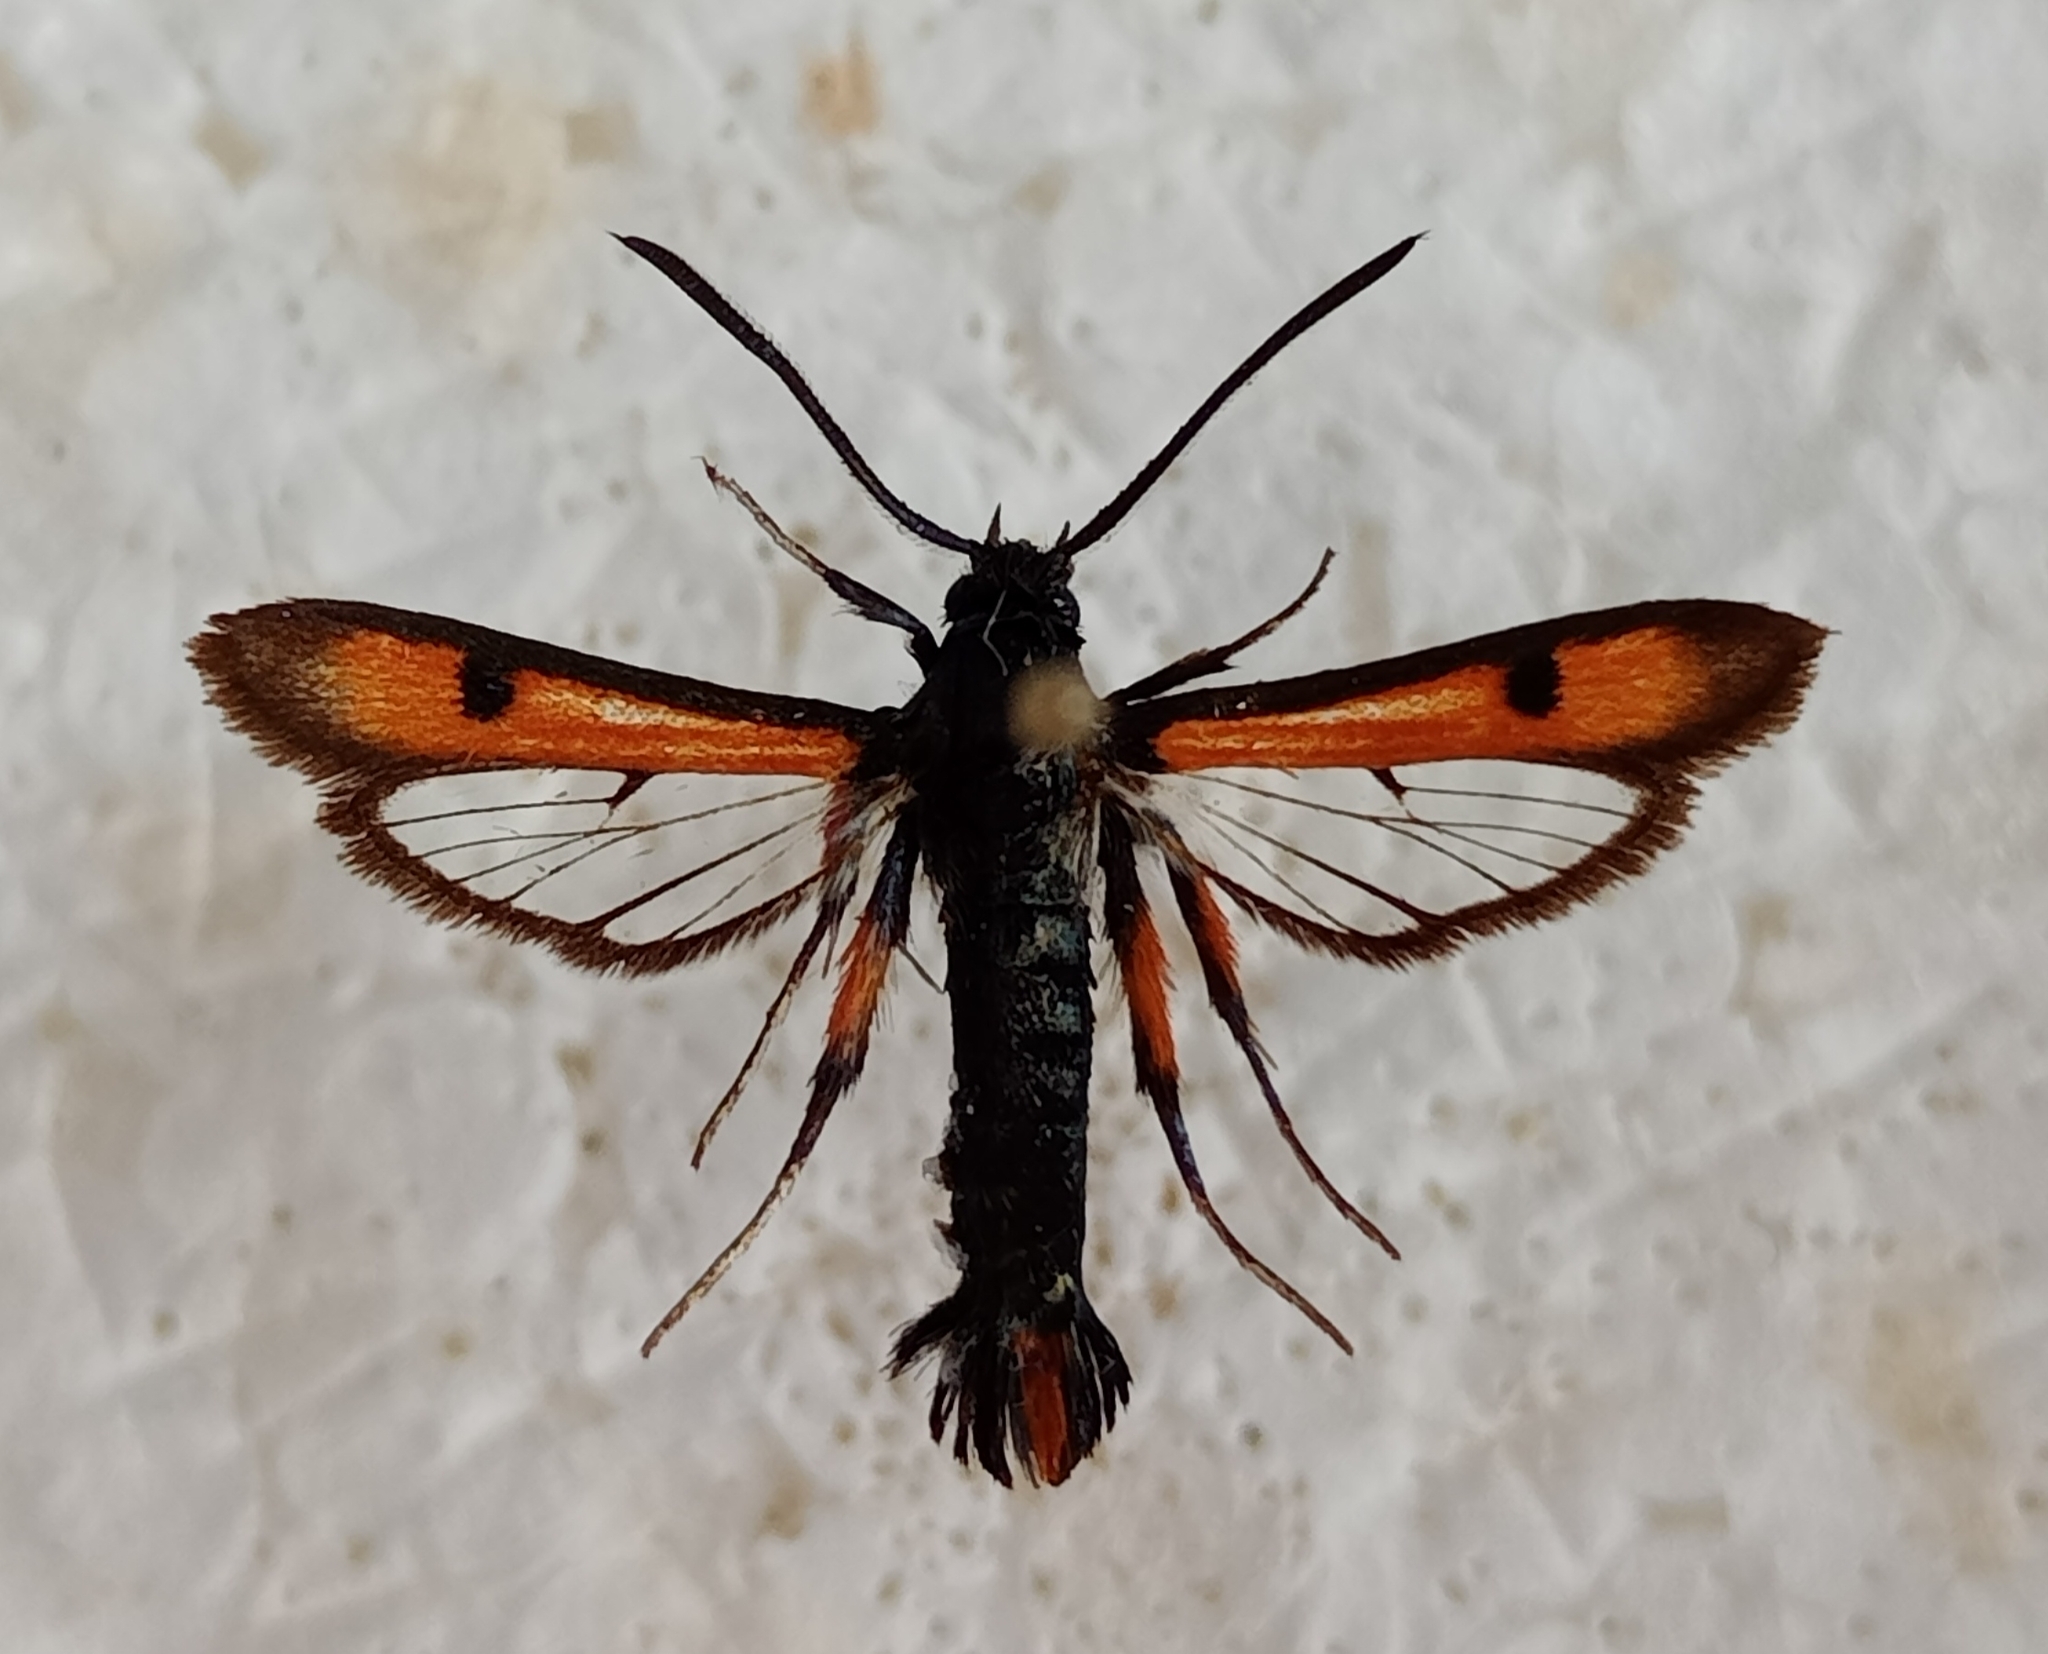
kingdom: Animalia
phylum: Arthropoda
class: Insecta
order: Lepidoptera
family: Sesiidae
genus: Chamaesphecia
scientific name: Chamaesphecia chalciformis
